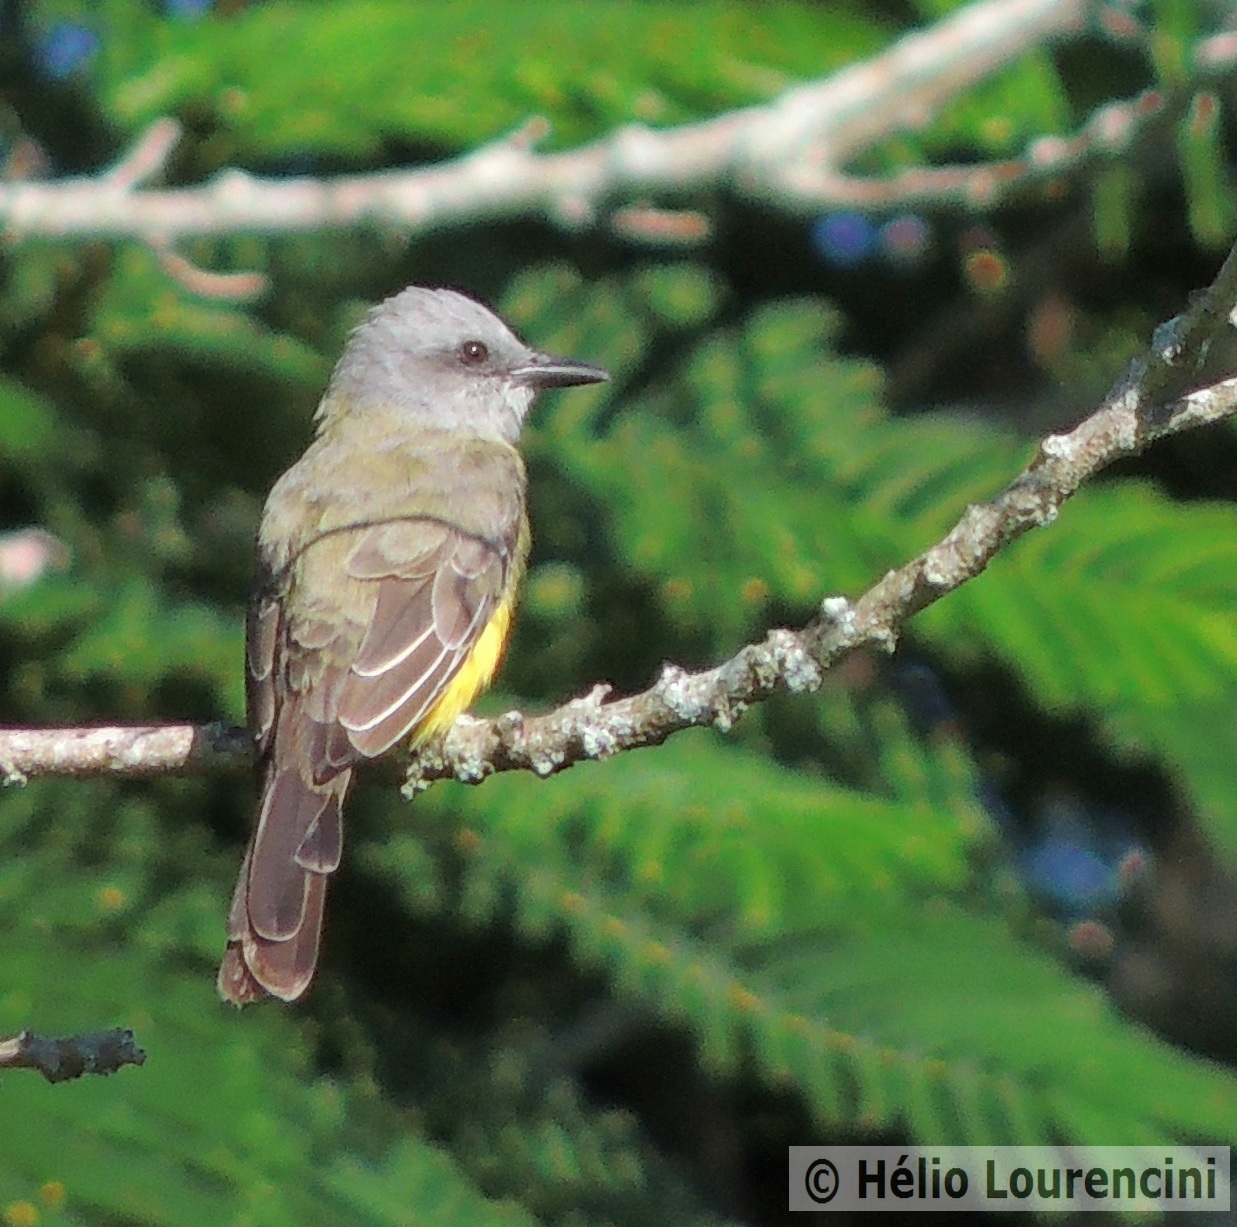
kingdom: Animalia
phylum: Chordata
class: Aves
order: Passeriformes
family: Tyrannidae
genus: Tyrannus
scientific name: Tyrannus melancholicus
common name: Tropical kingbird
